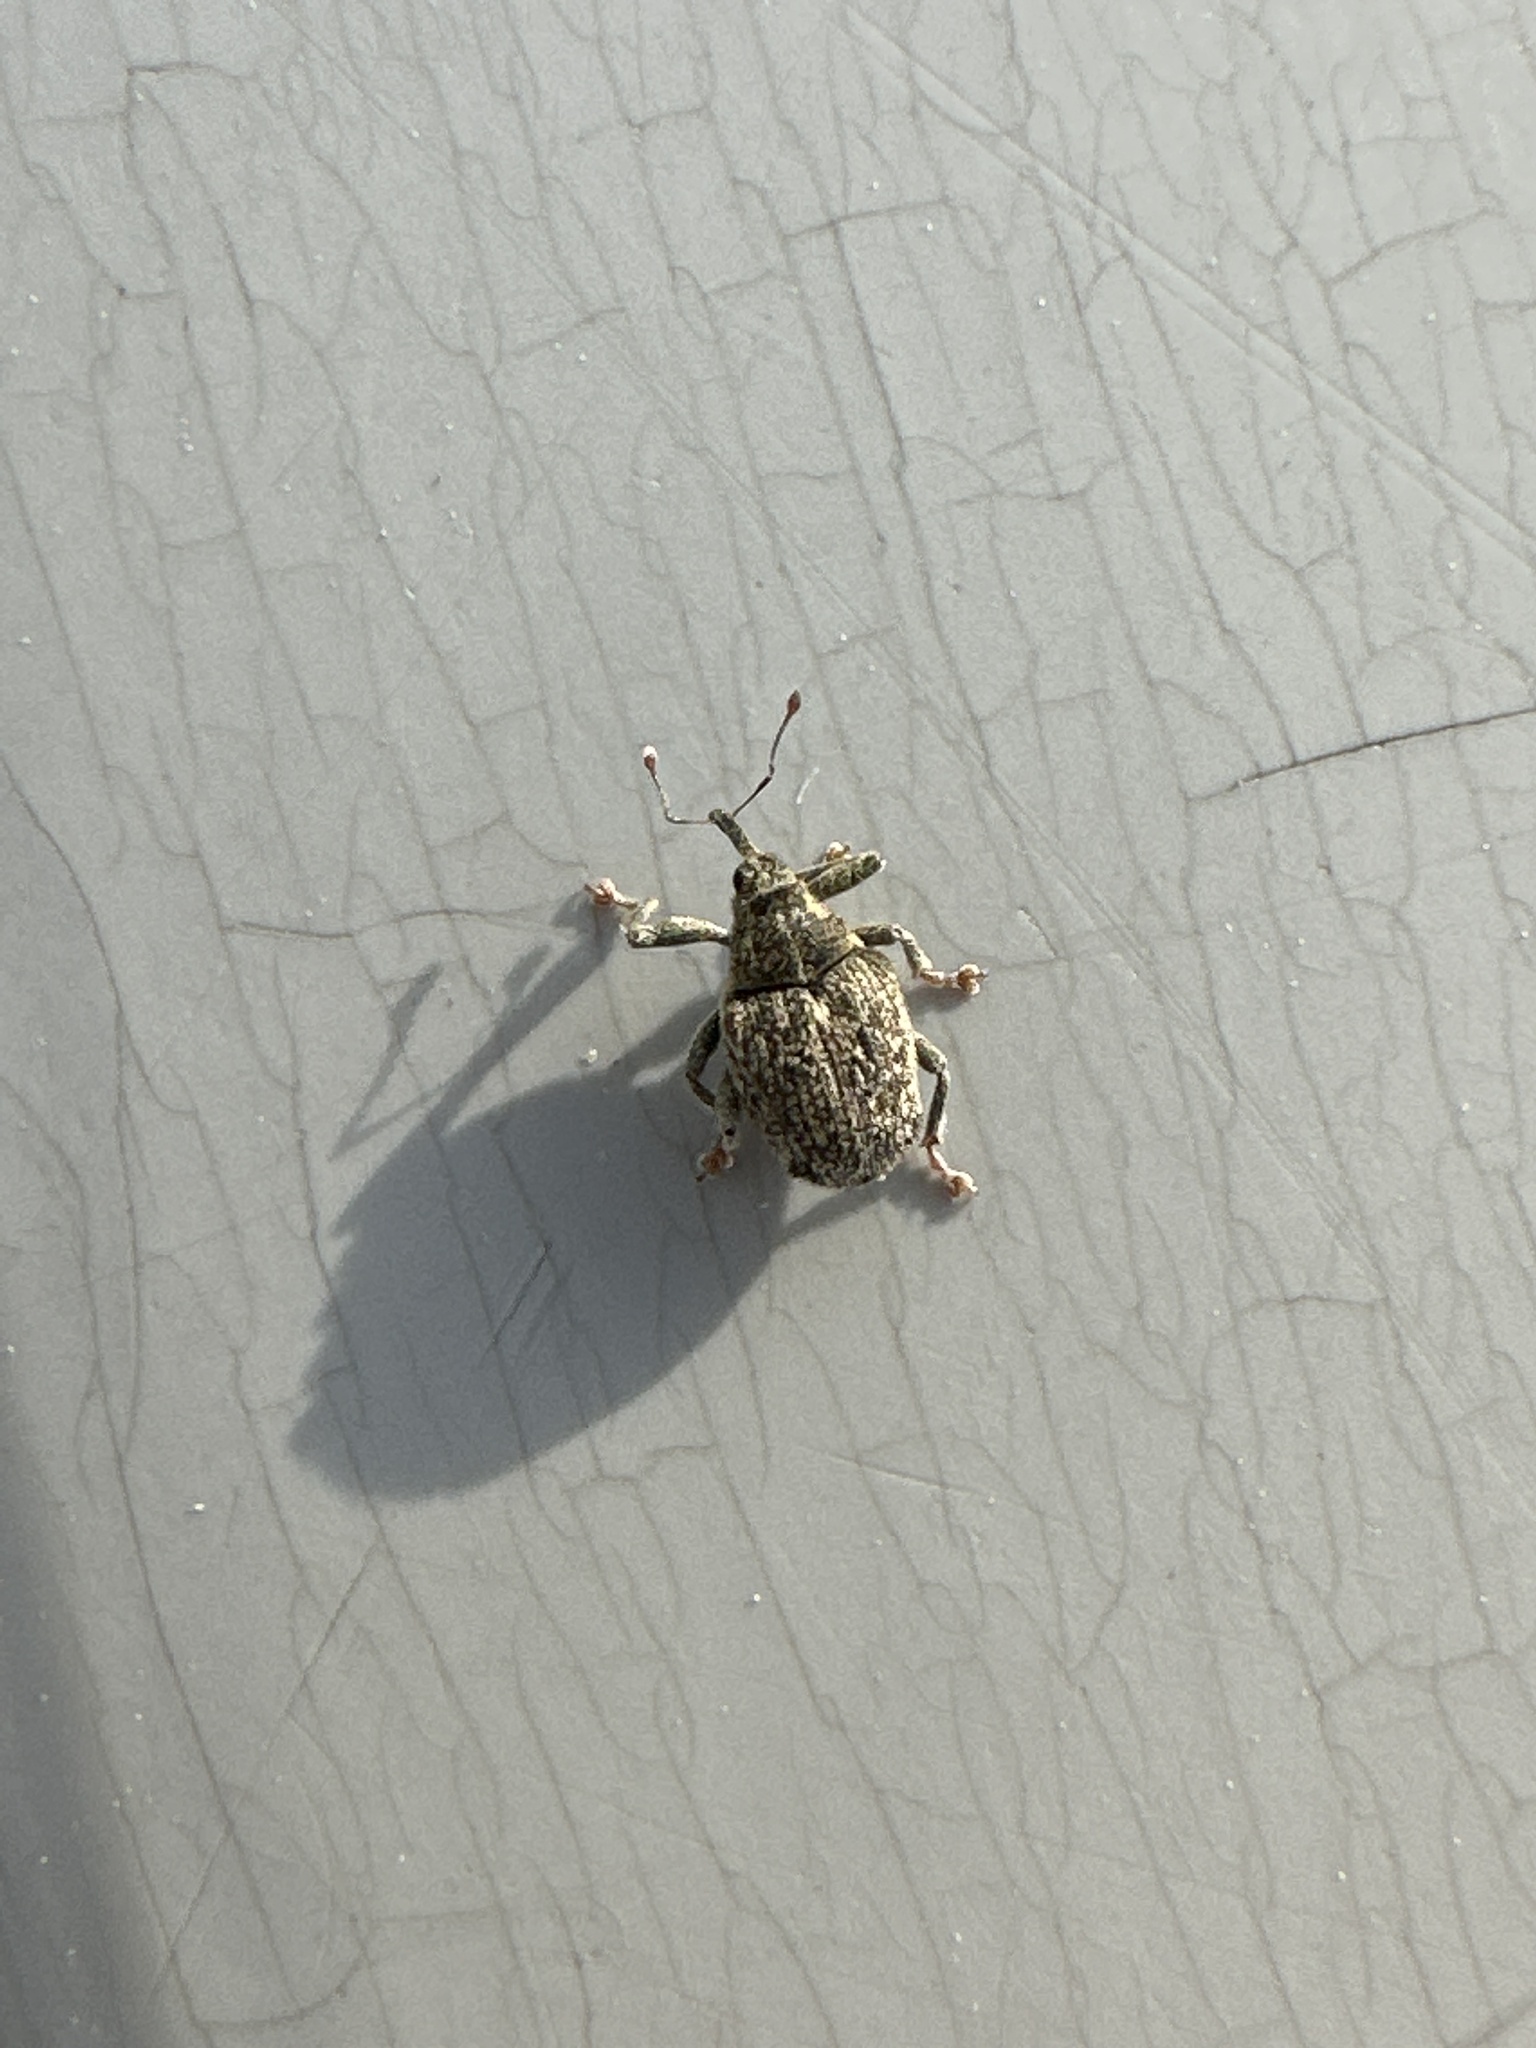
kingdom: Animalia
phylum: Arthropoda
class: Insecta
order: Coleoptera
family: Curculionidae
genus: Ceutorhynchus
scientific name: Ceutorhynchus pallidactylus
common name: Cabbage stem weavil
